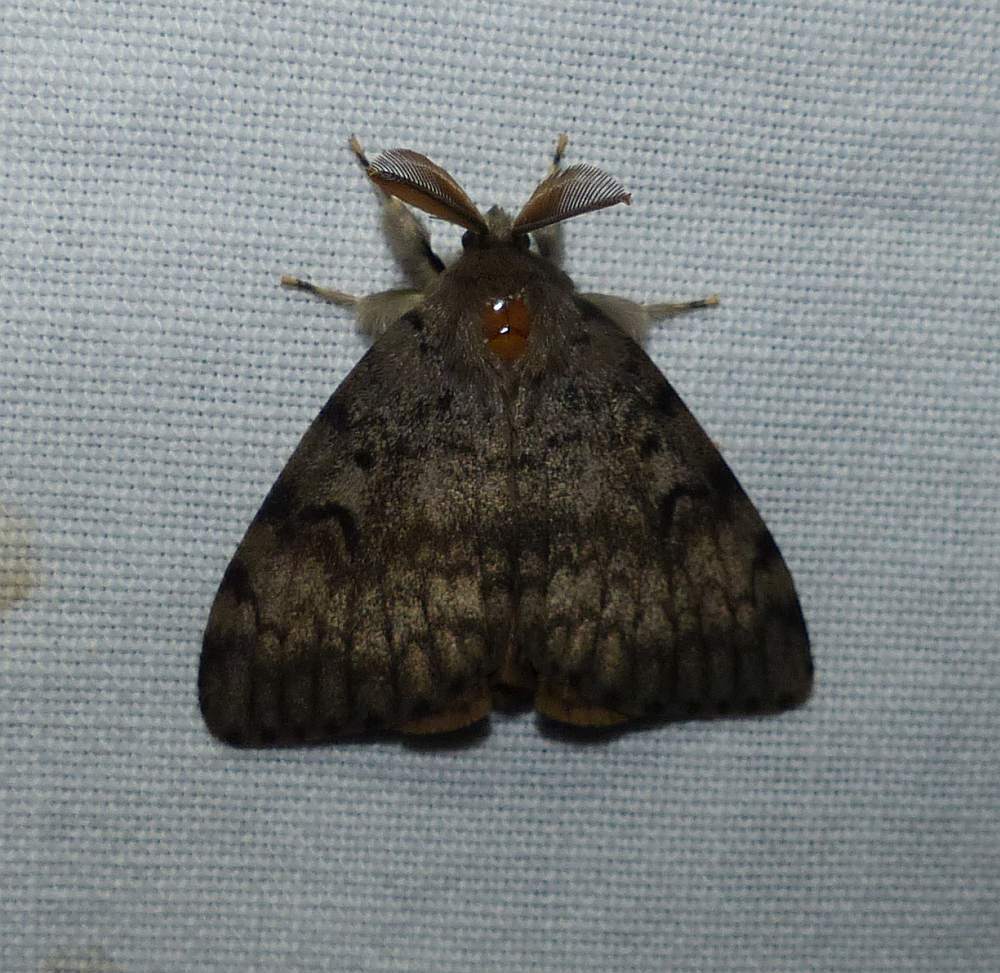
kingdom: Animalia
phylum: Arthropoda
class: Insecta
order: Lepidoptera
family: Erebidae
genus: Lymantria
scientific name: Lymantria dispar
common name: Gypsy moth
